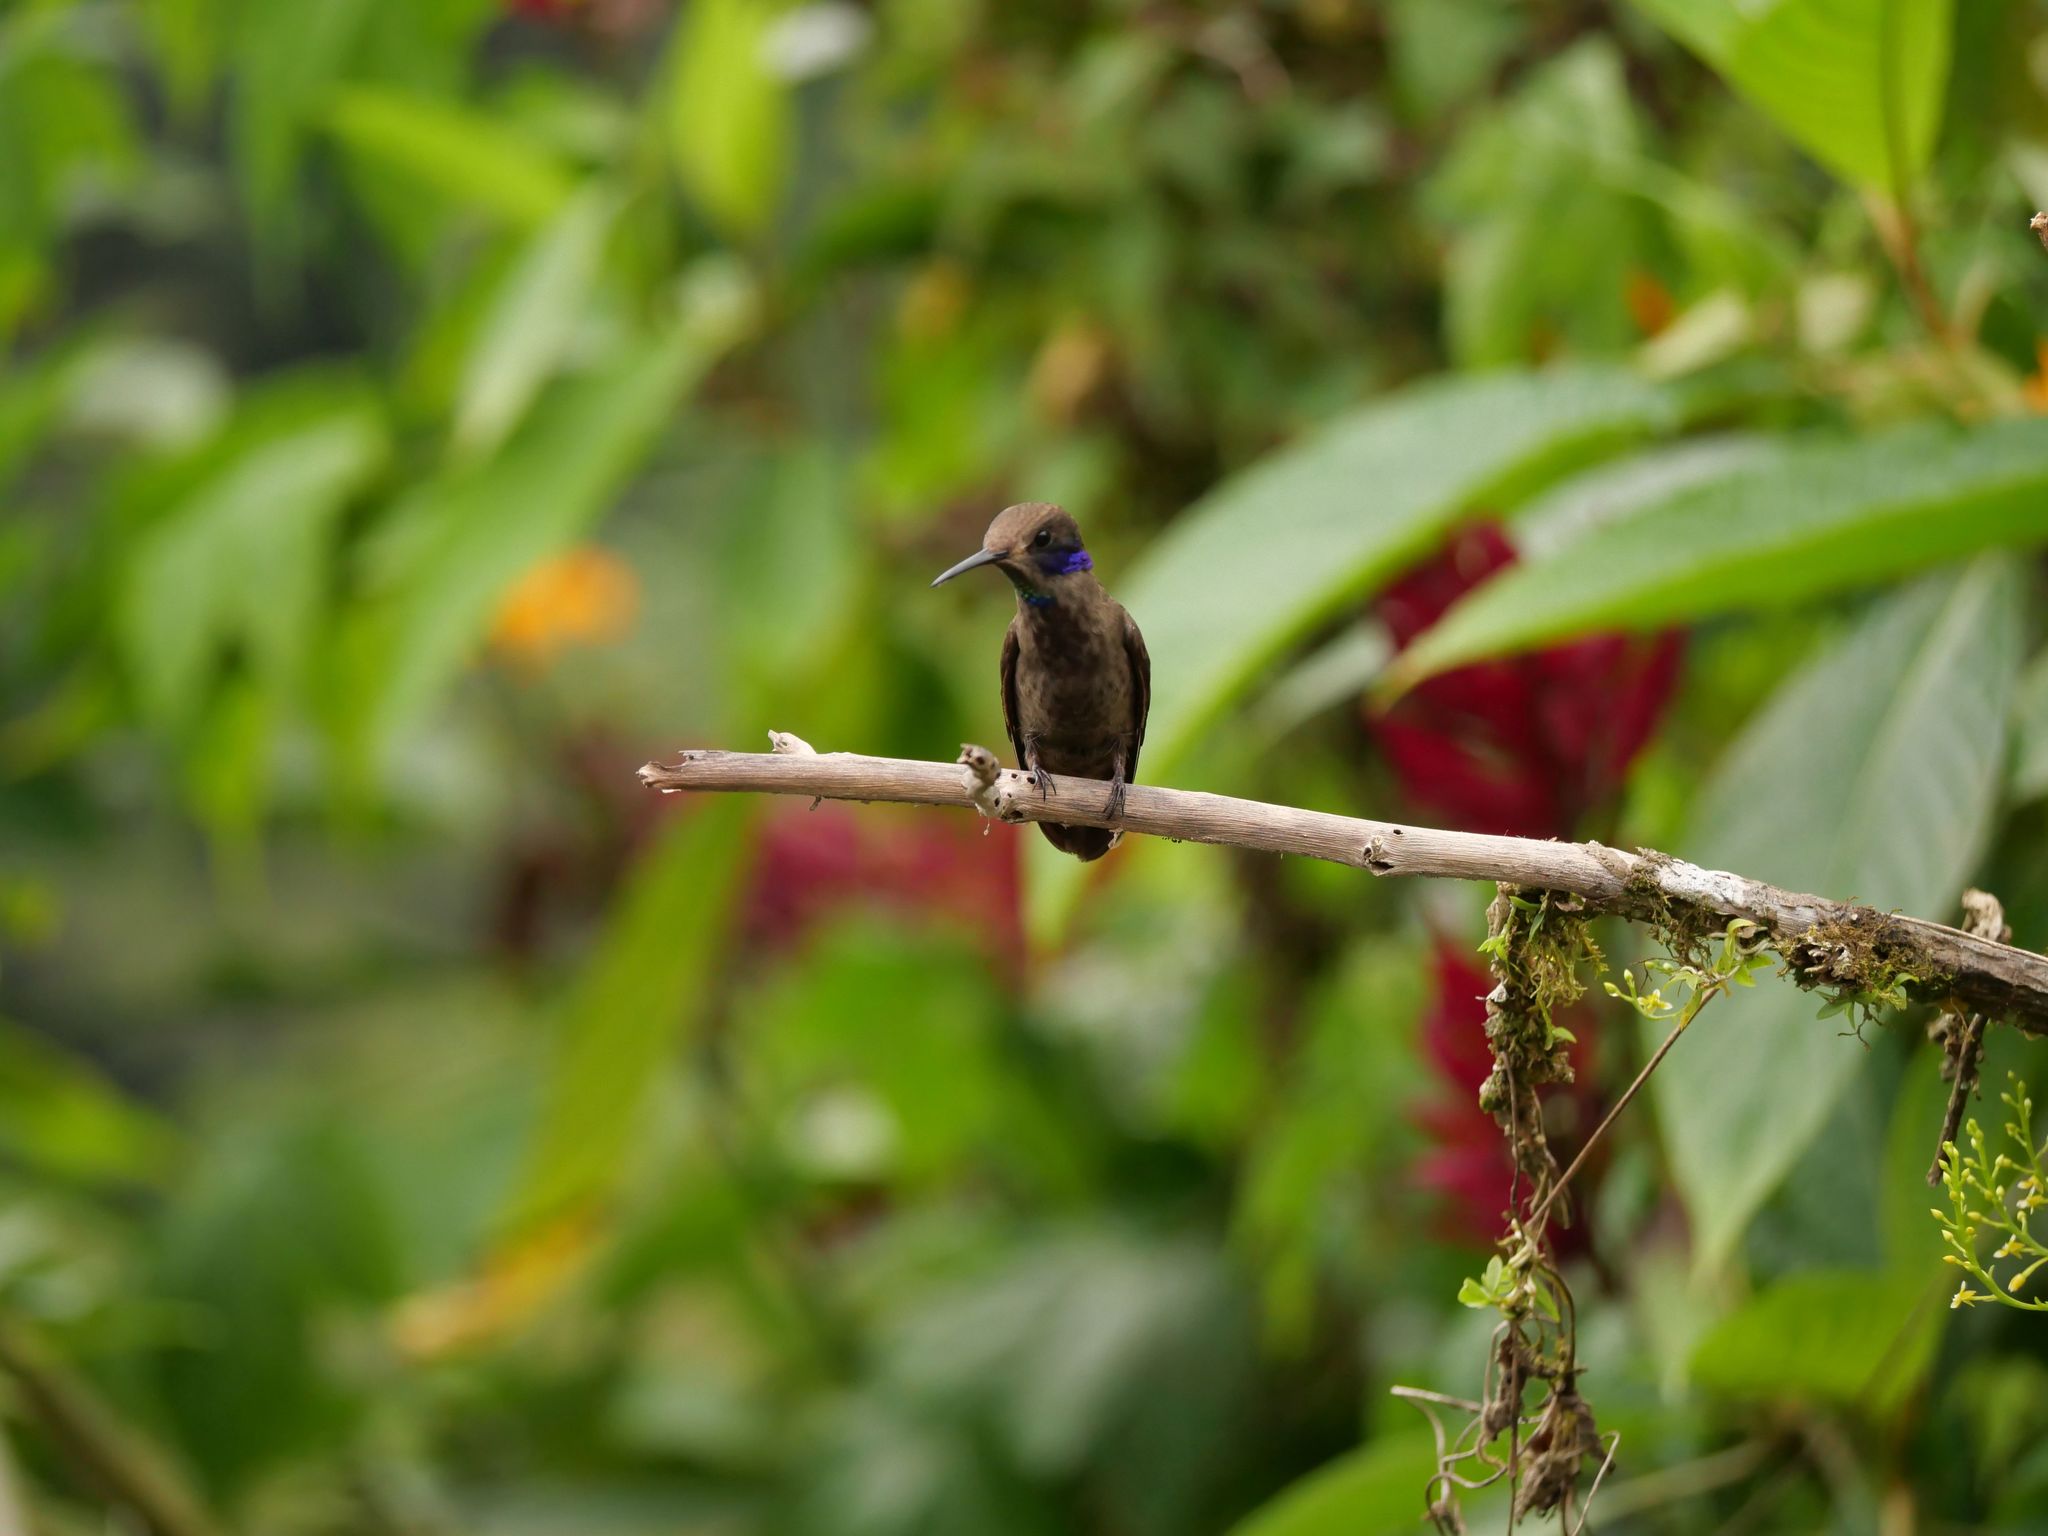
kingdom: Animalia
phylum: Chordata
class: Aves
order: Apodiformes
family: Trochilidae
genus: Colibri
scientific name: Colibri delphinae
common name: Brown violetear
